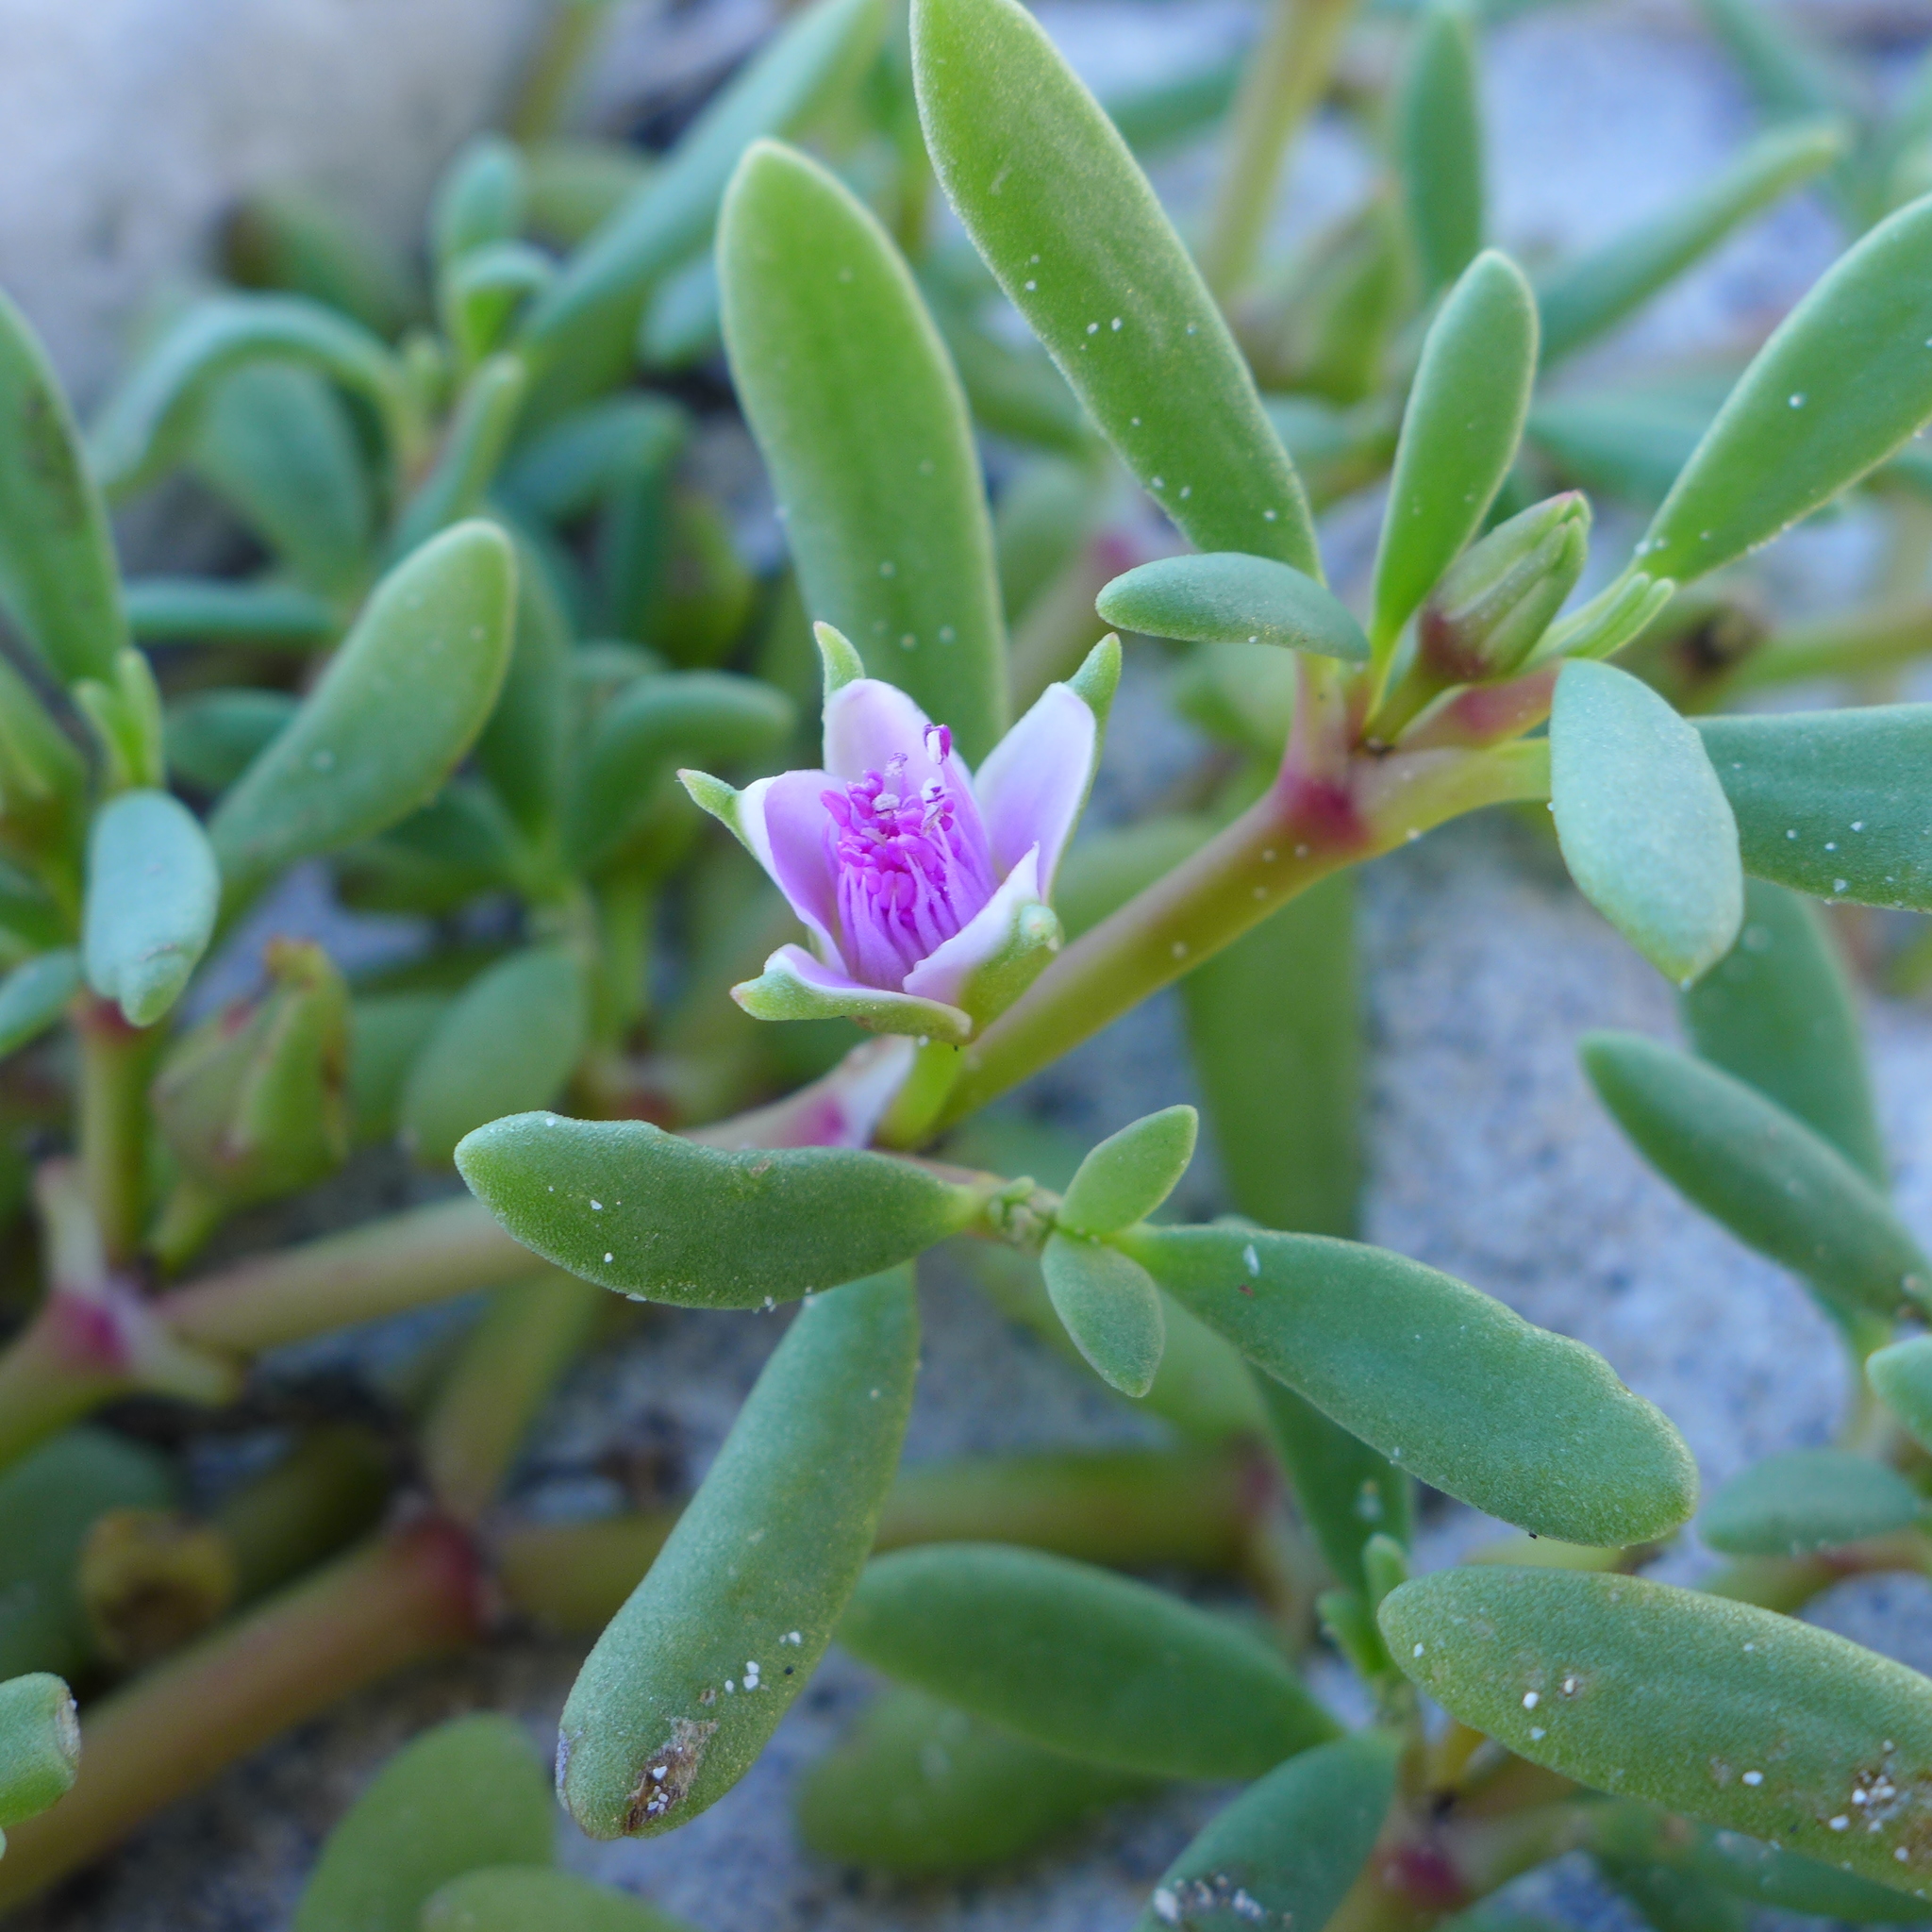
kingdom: Plantae
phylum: Tracheophyta
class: Magnoliopsida
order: Caryophyllales
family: Aizoaceae
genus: Sesuvium
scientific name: Sesuvium portulacastrum
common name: Sea-purslane
